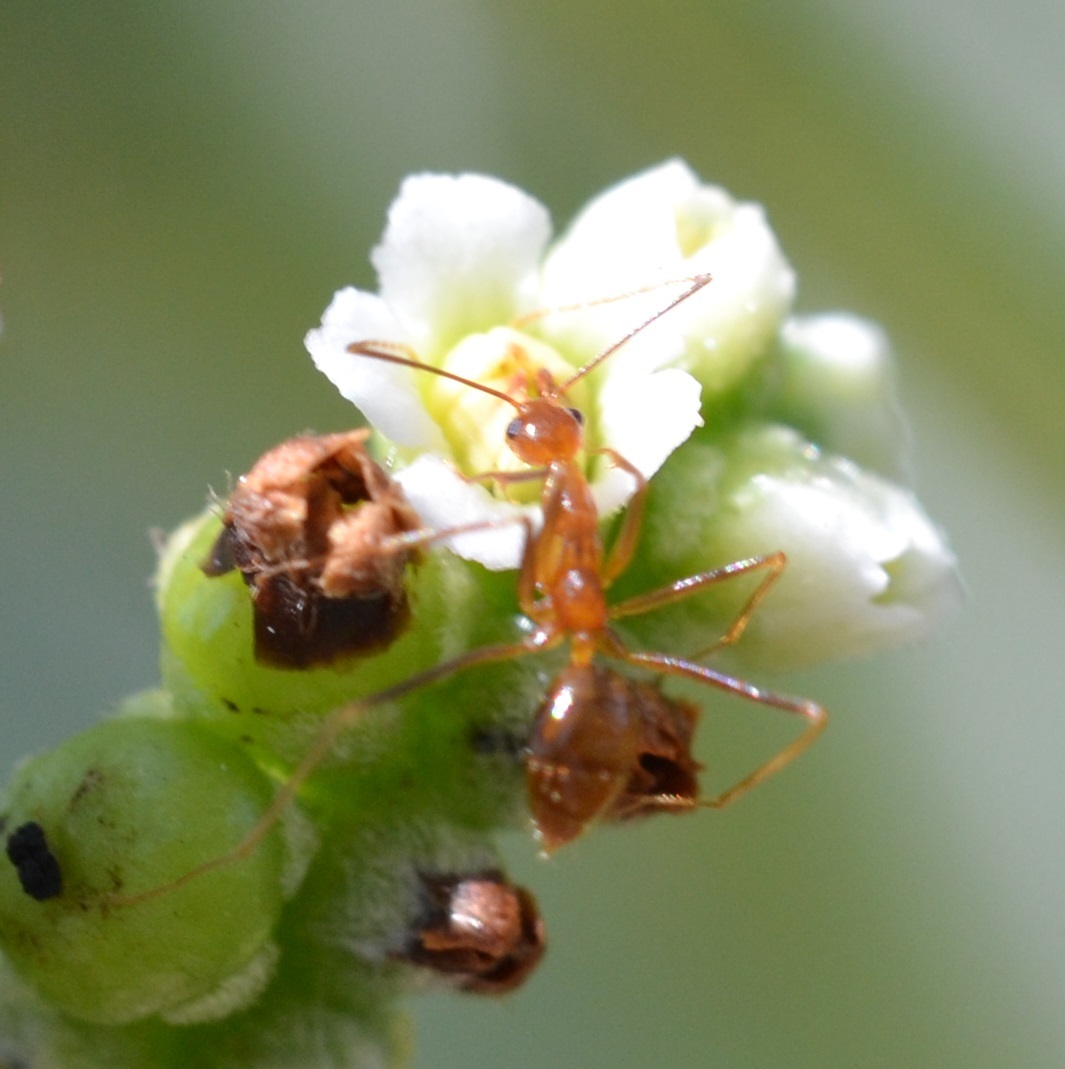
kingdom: Animalia
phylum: Arthropoda
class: Insecta
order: Hymenoptera
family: Formicidae
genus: Anoplolepis
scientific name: Anoplolepis gracilipes
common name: Ant
